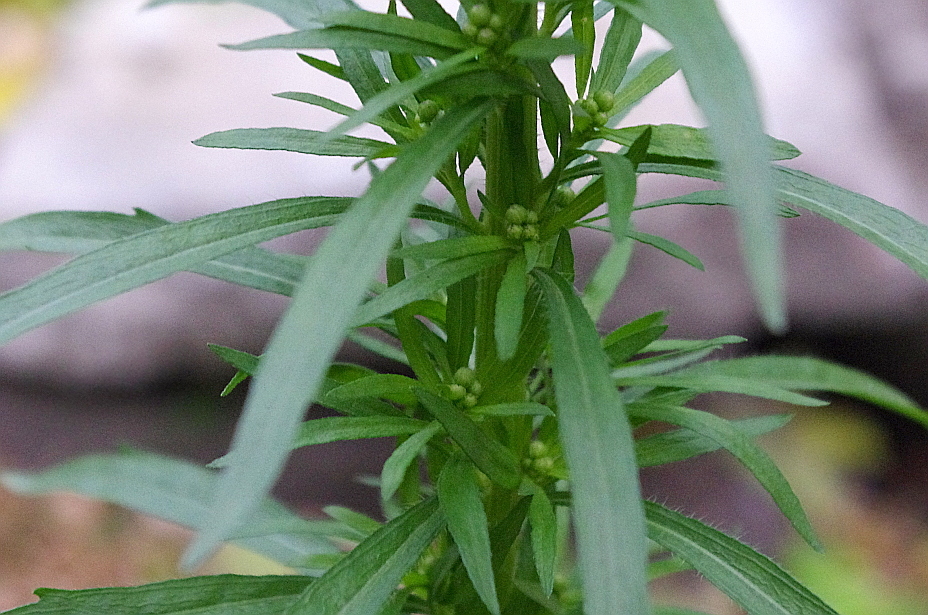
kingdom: Plantae
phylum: Tracheophyta
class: Magnoliopsida
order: Asterales
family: Asteraceae
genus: Erigeron
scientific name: Erigeron canadensis
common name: Canadian fleabane
